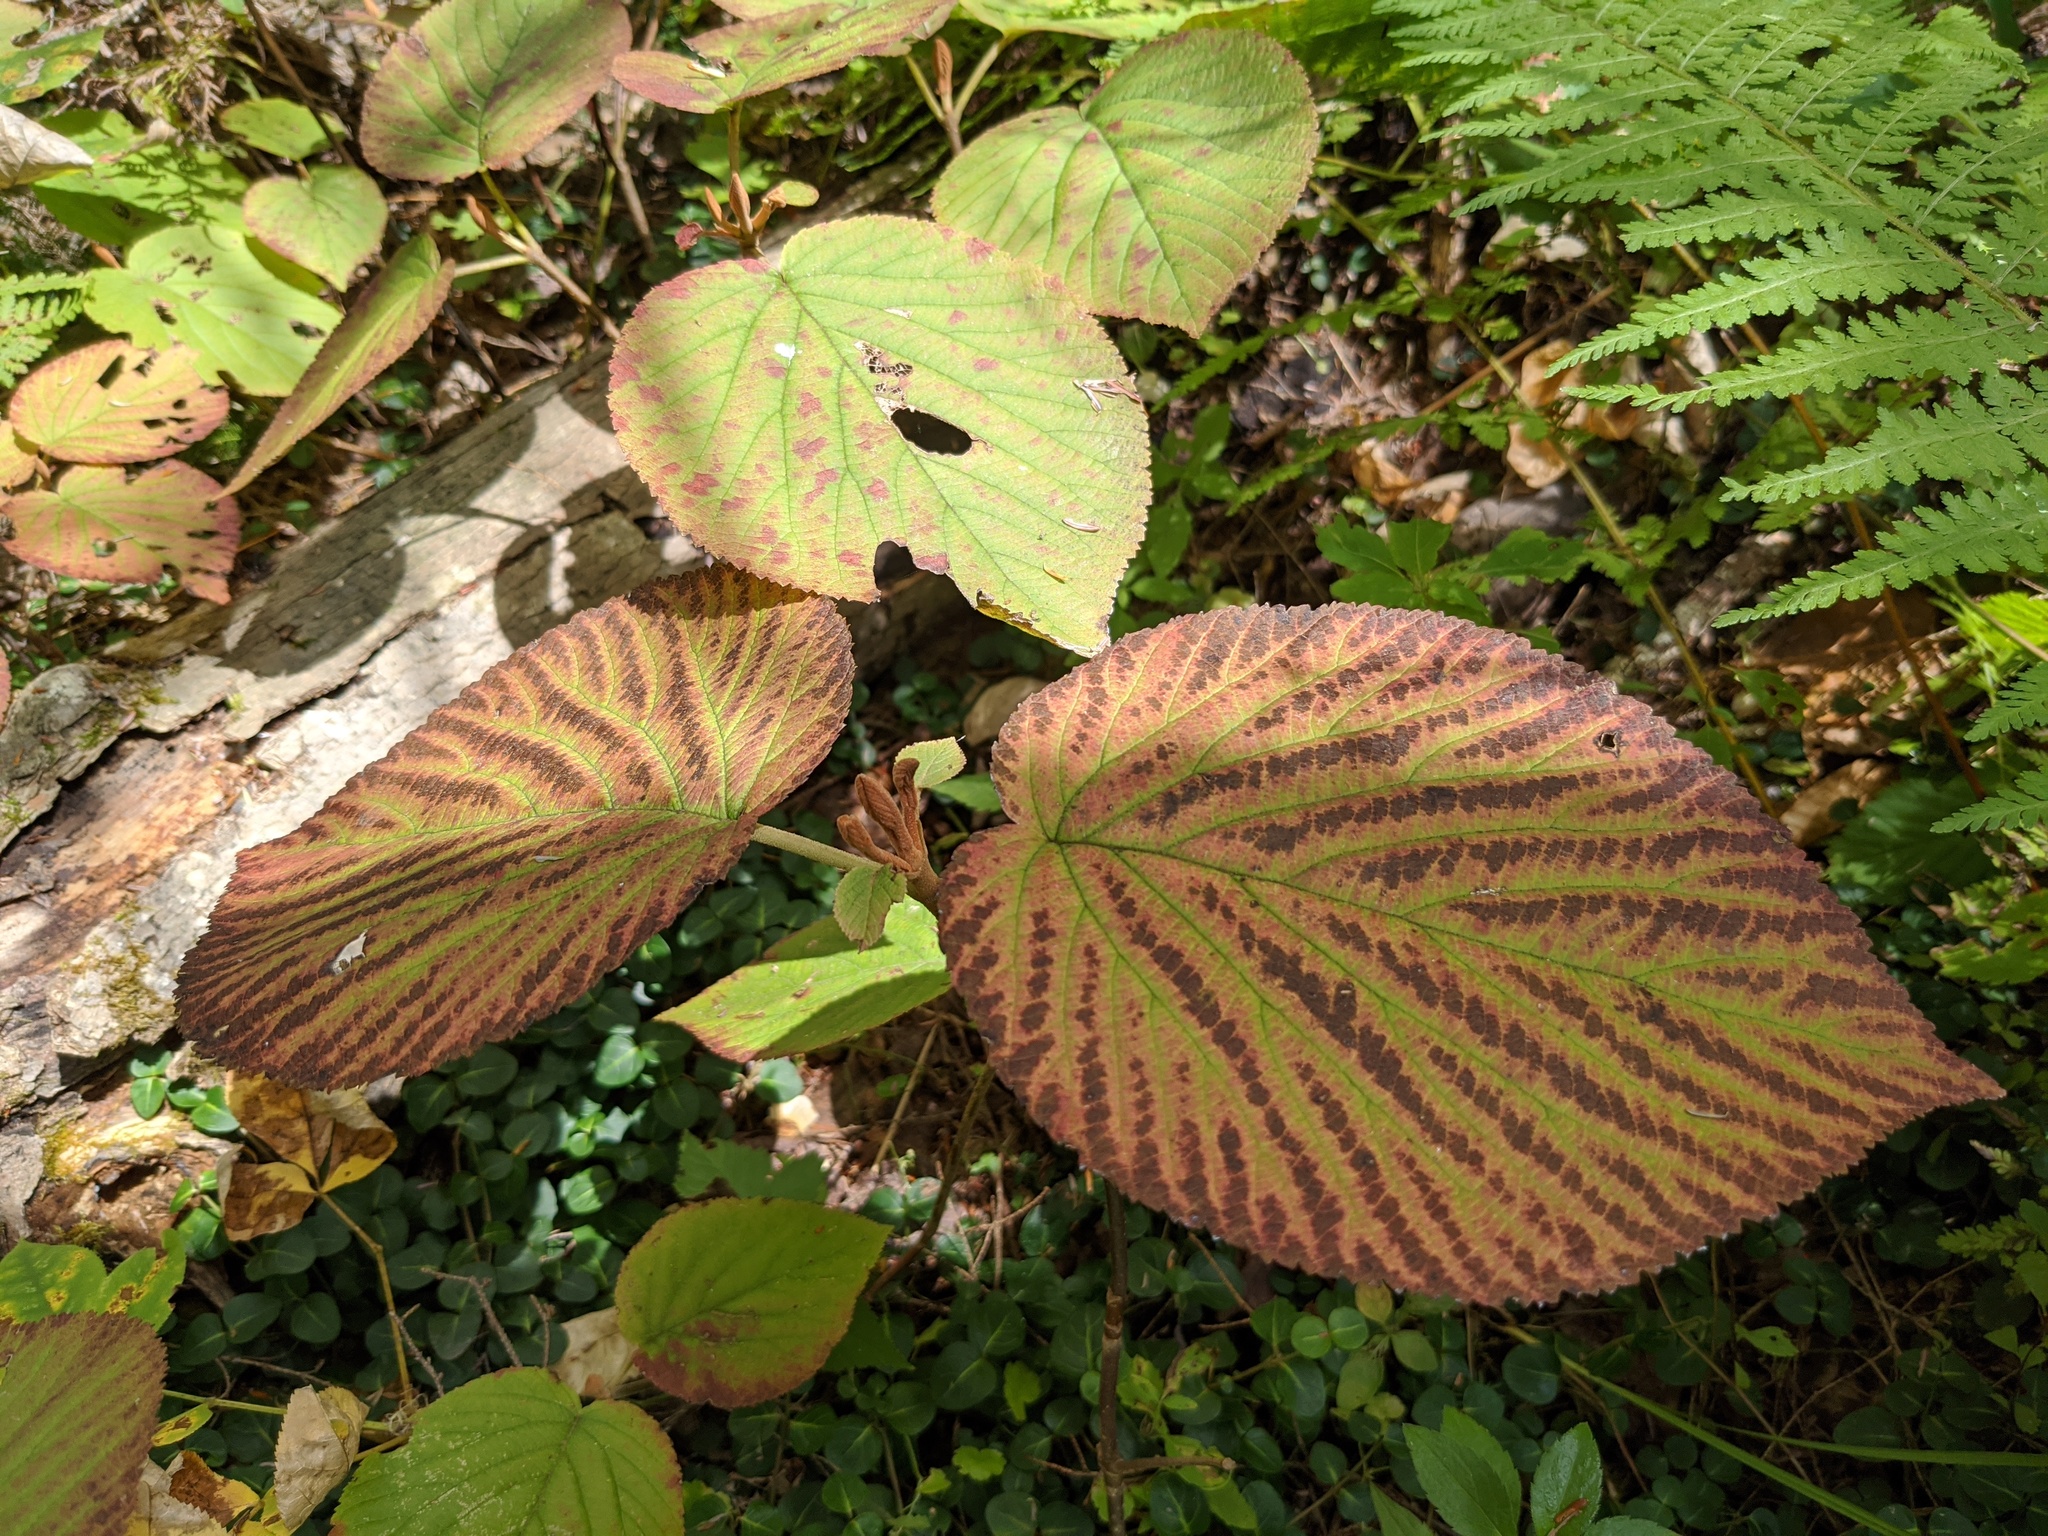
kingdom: Plantae
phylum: Tracheophyta
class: Magnoliopsida
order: Dipsacales
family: Viburnaceae
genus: Viburnum
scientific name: Viburnum lantanoides
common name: Hobblebush
